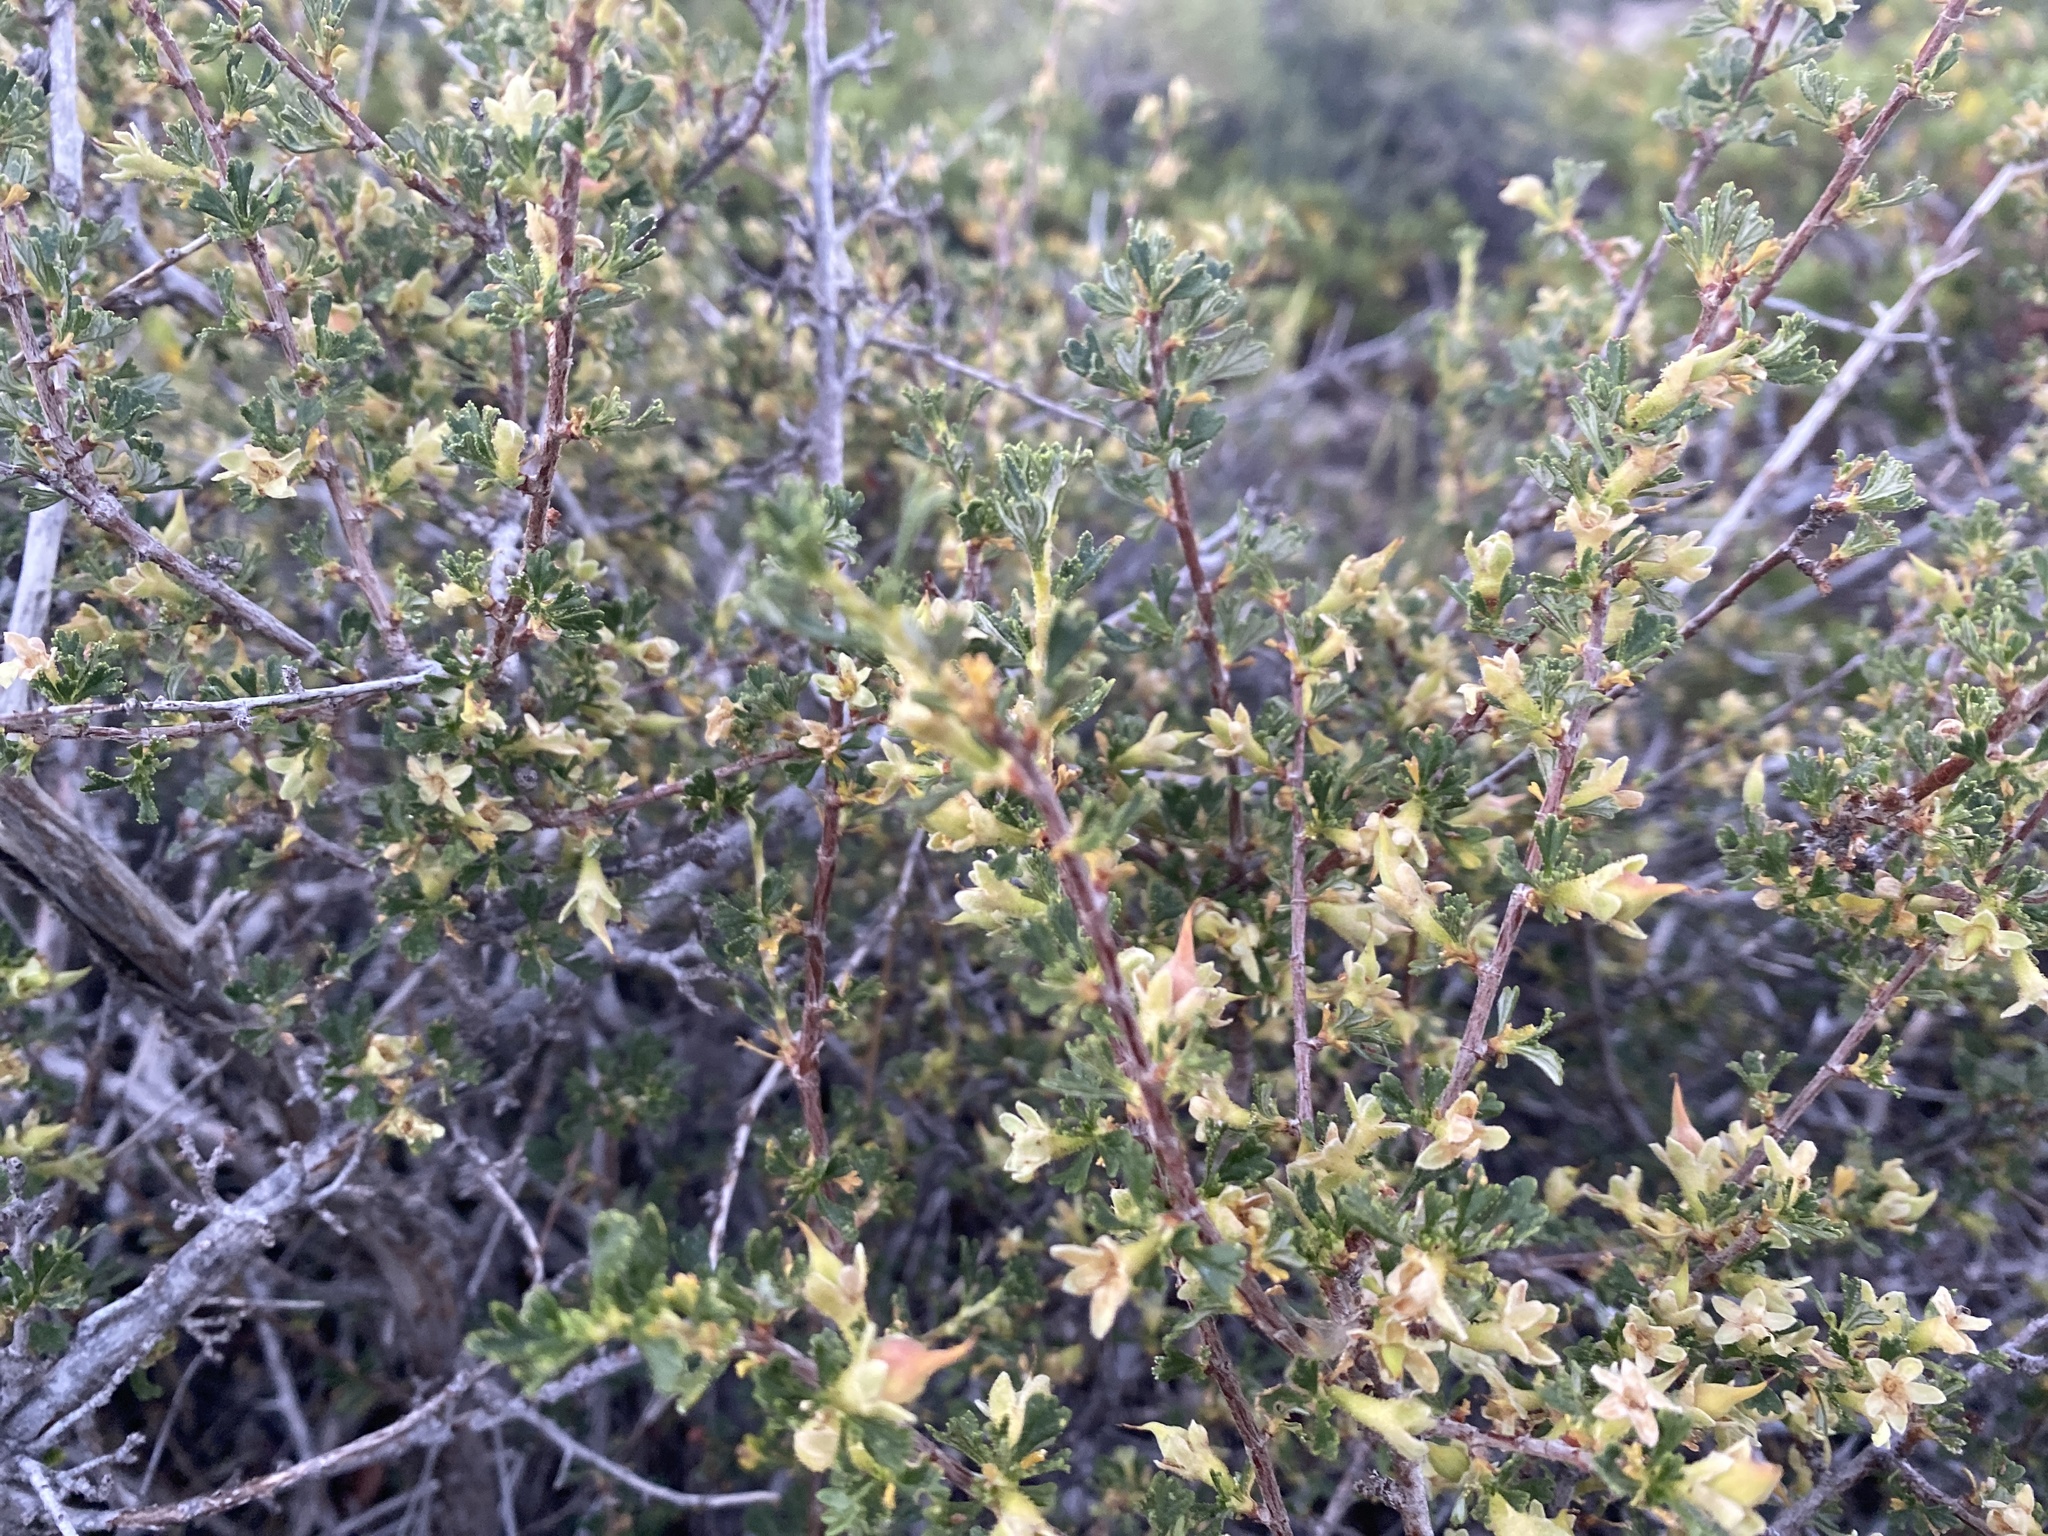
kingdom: Plantae
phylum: Tracheophyta
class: Magnoliopsida
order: Rosales
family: Rosaceae
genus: Purshia
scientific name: Purshia tridentata
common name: Antelope bitterbrush
